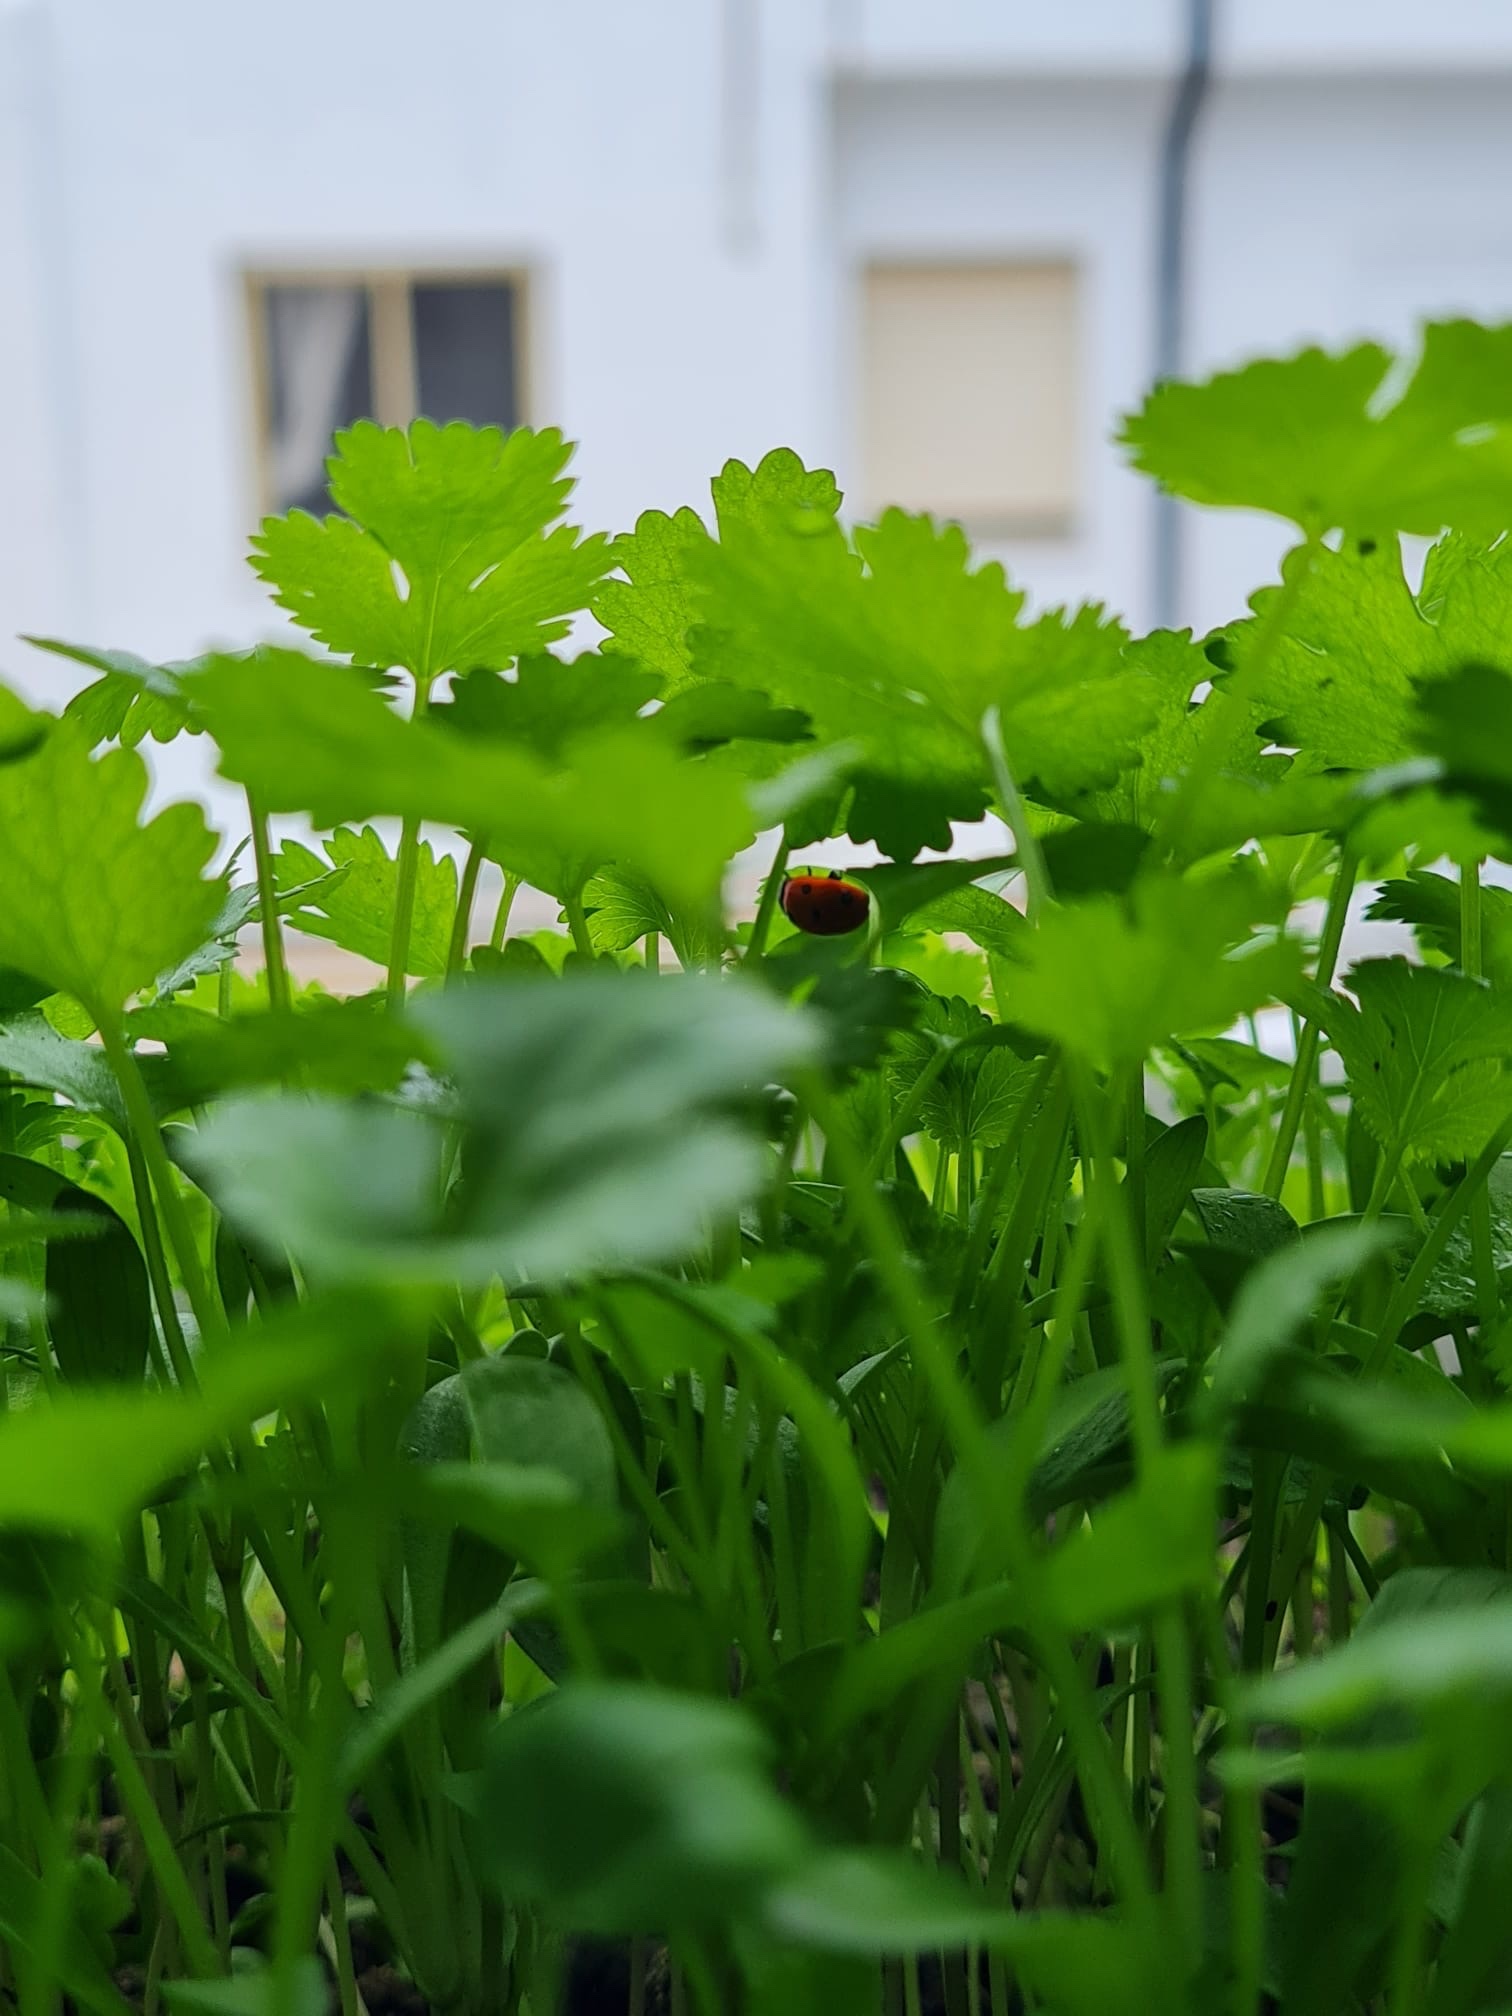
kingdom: Animalia
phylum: Arthropoda
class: Insecta
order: Coleoptera
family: Coccinellidae
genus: Coccinella
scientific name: Coccinella septempunctata
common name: Sevenspotted lady beetle
